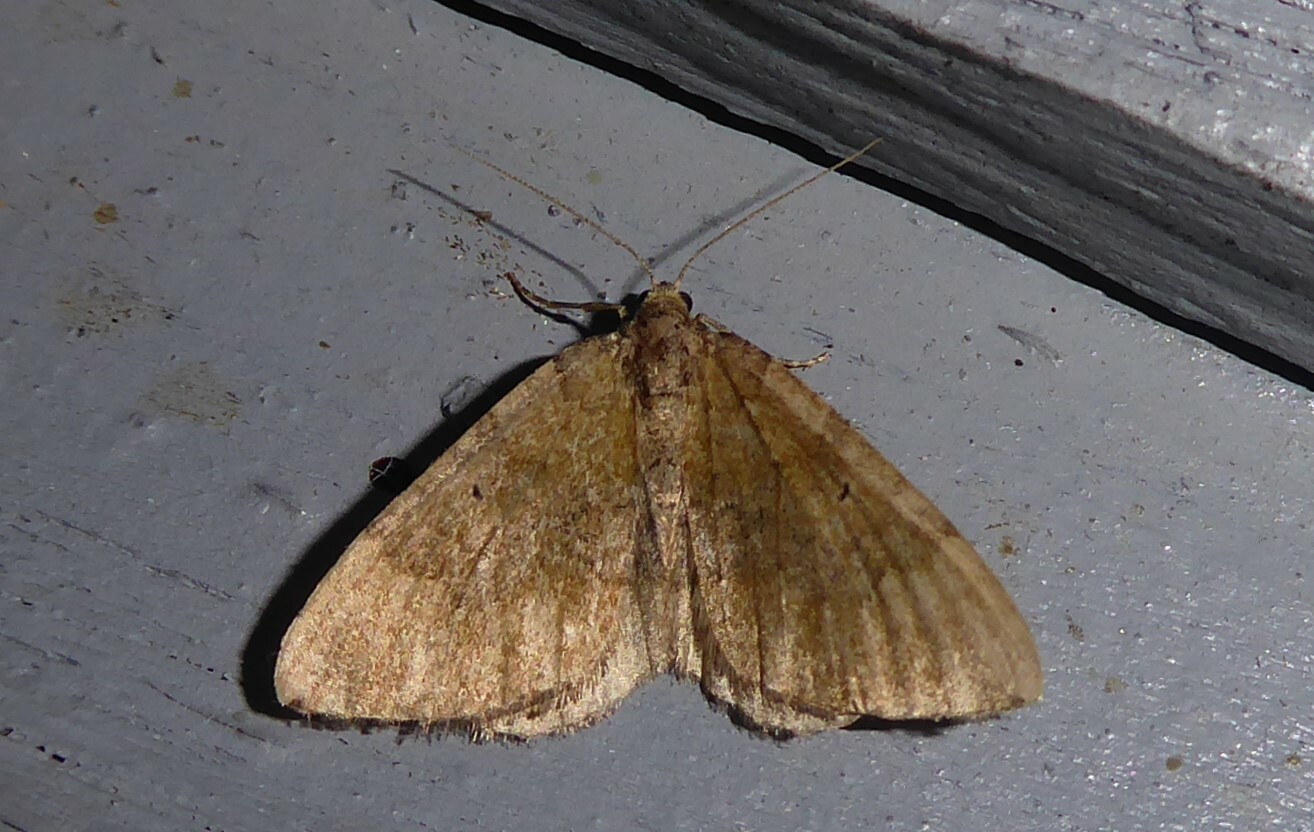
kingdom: Animalia
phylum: Arthropoda
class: Insecta
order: Lepidoptera
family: Geometridae
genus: Epyaxa
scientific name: Epyaxa rosearia
